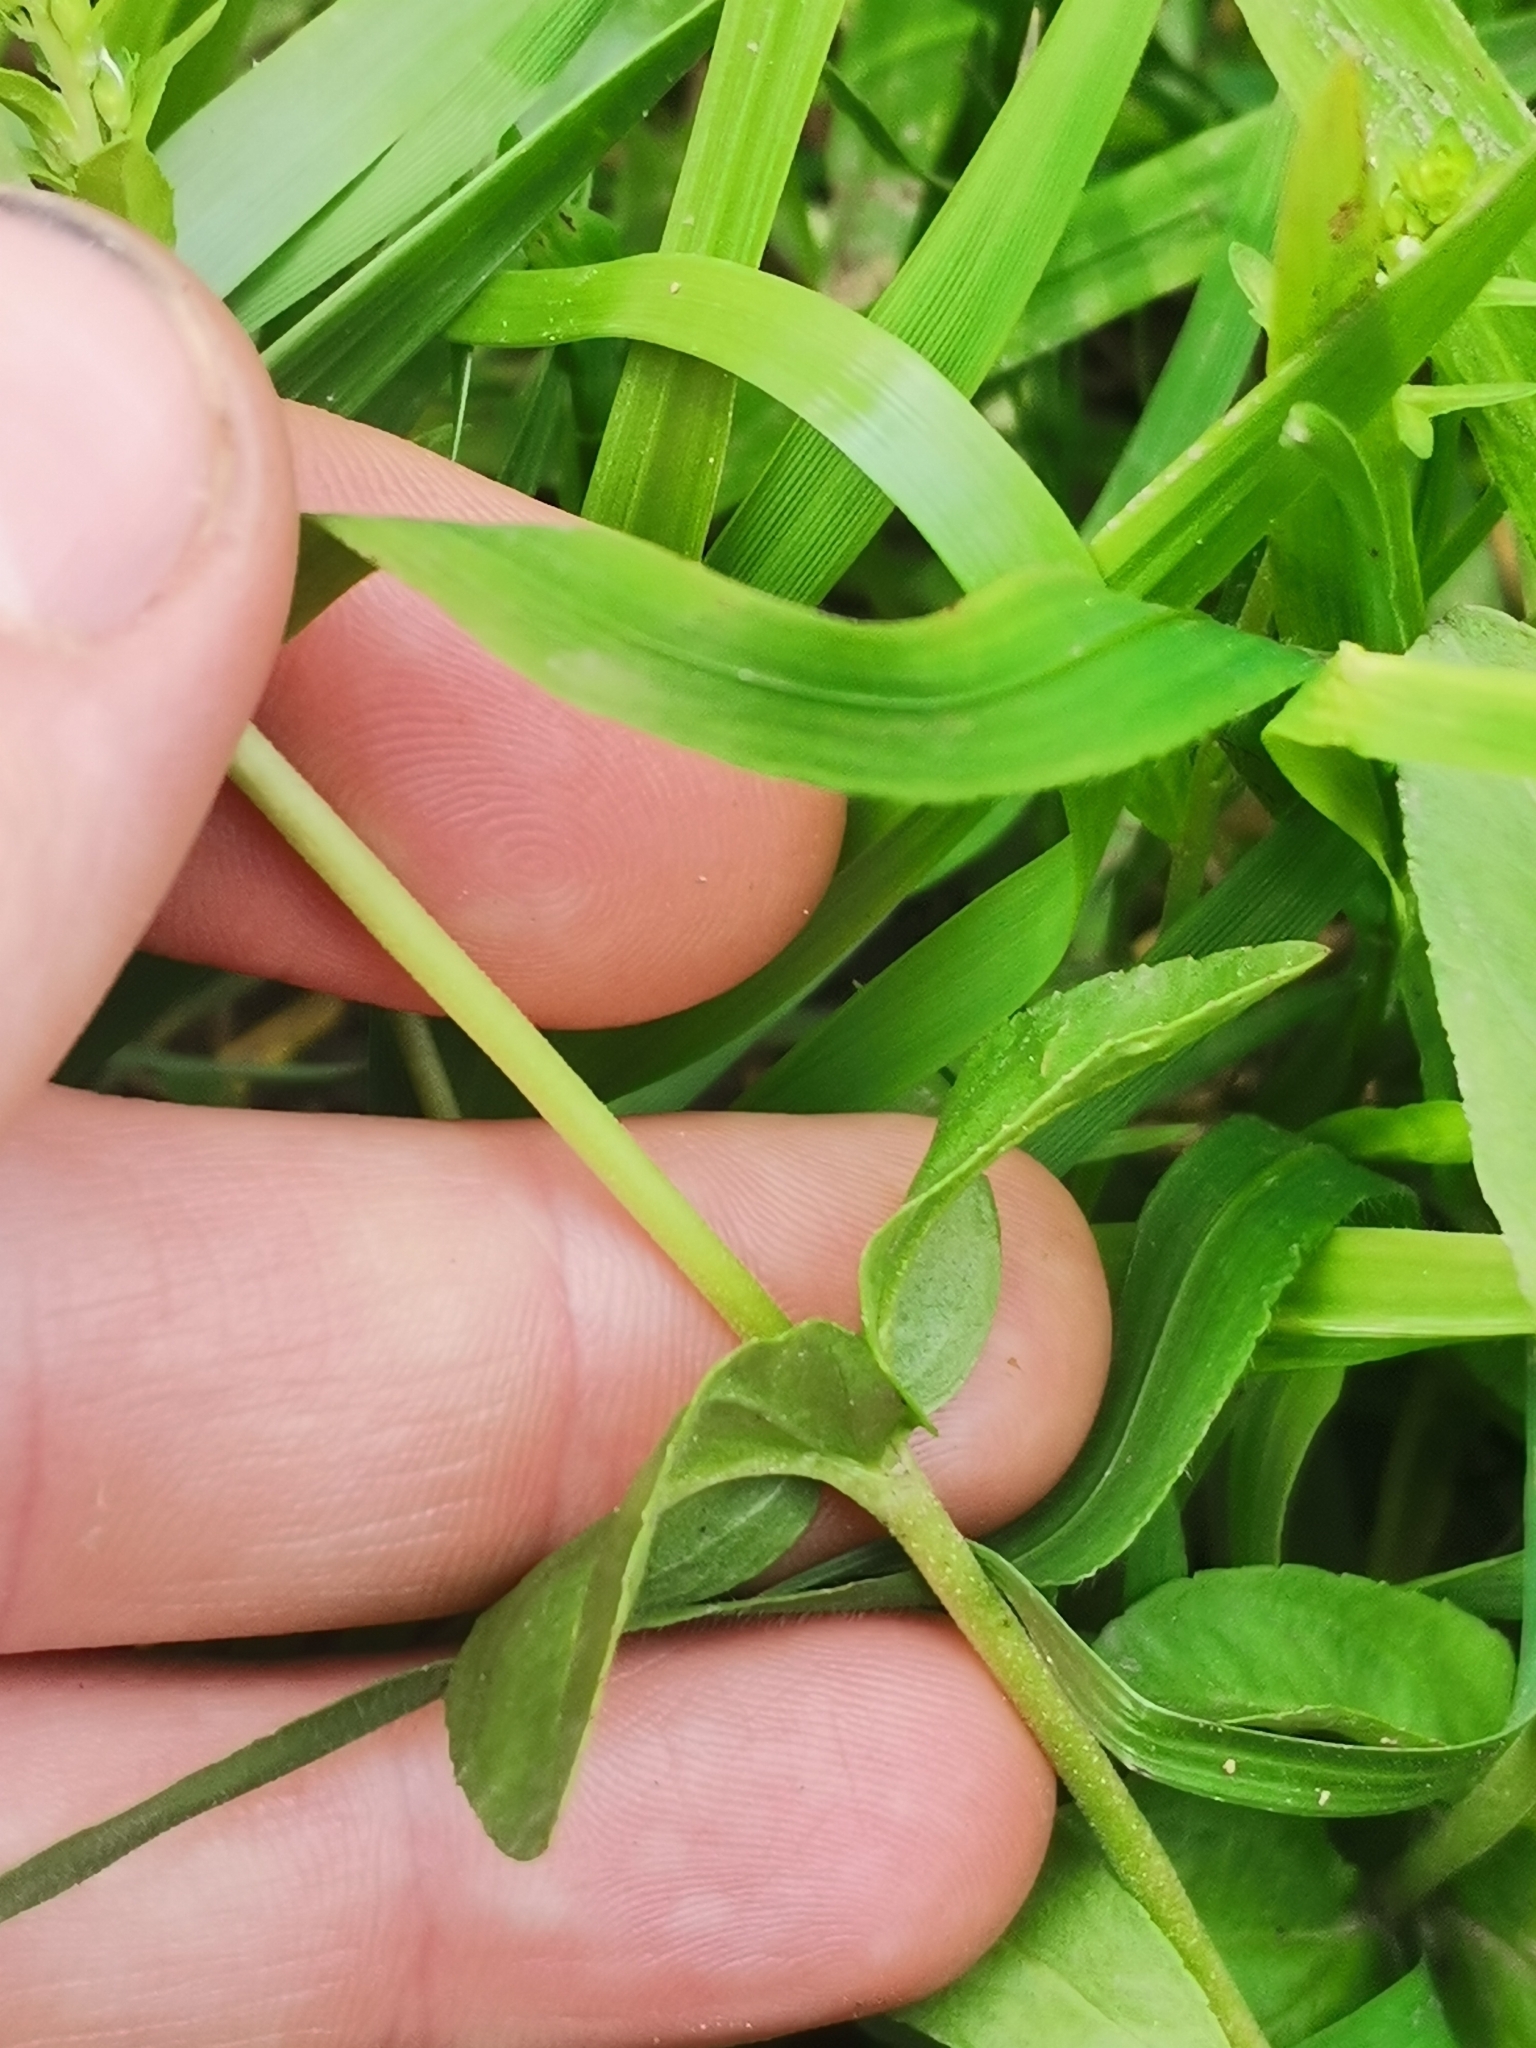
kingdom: Plantae
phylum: Tracheophyta
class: Magnoliopsida
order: Lamiales
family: Plantaginaceae
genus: Veronica
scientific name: Veronica serpyllifolia
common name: Thyme-leaved speedwell
